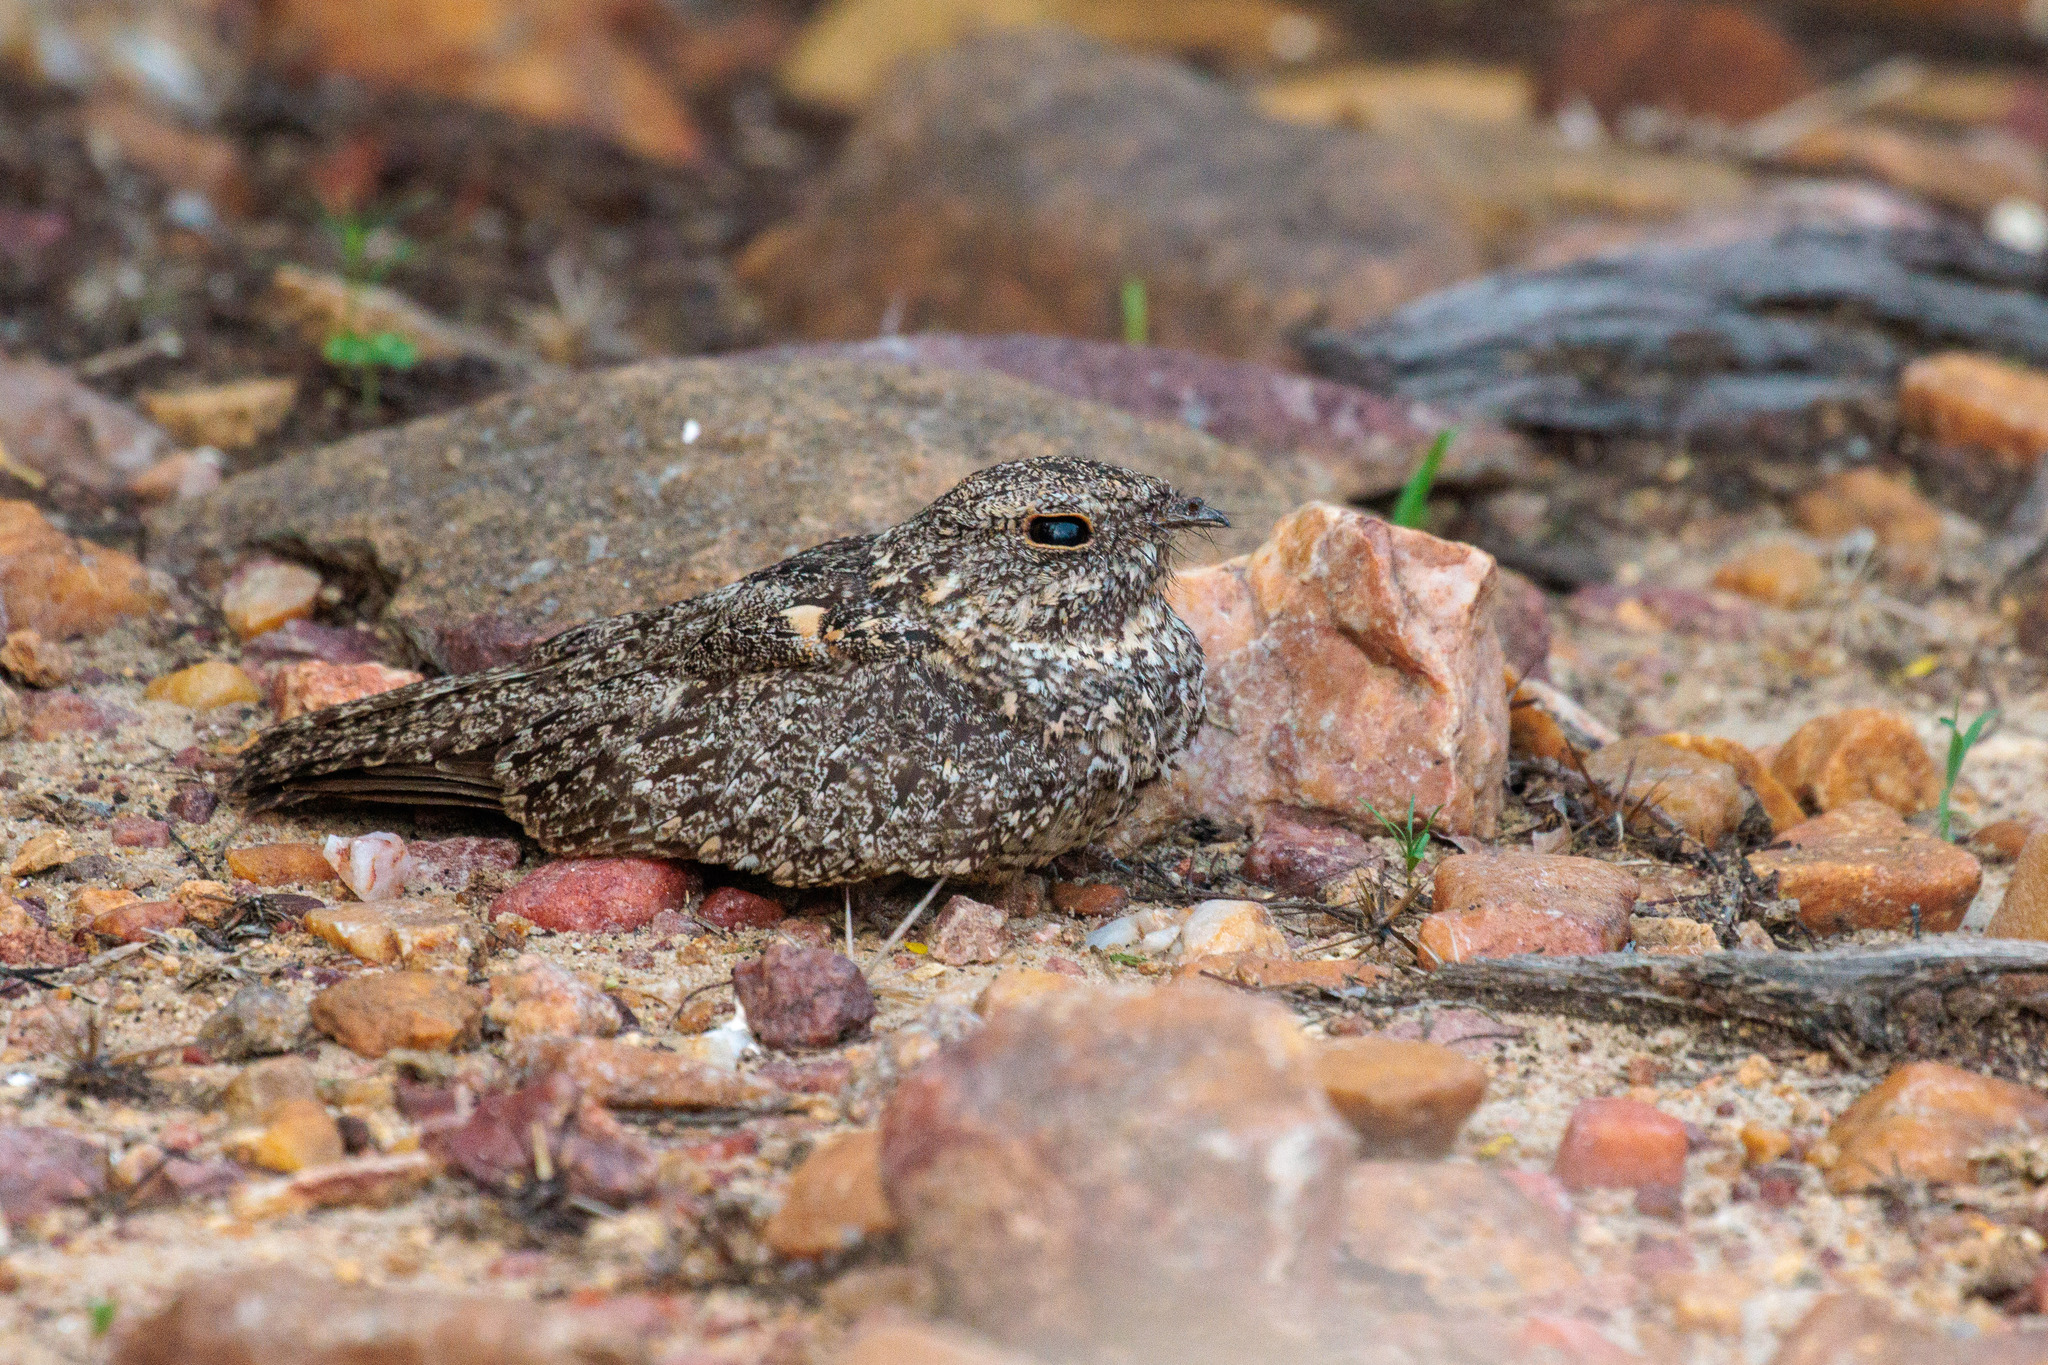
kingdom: Animalia
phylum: Chordata
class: Aves
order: Caprimulgiformes
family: Caprimulgidae
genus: Nyctipolus
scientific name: Nyctipolus hirundinaceus
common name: Pygmy nightjar
